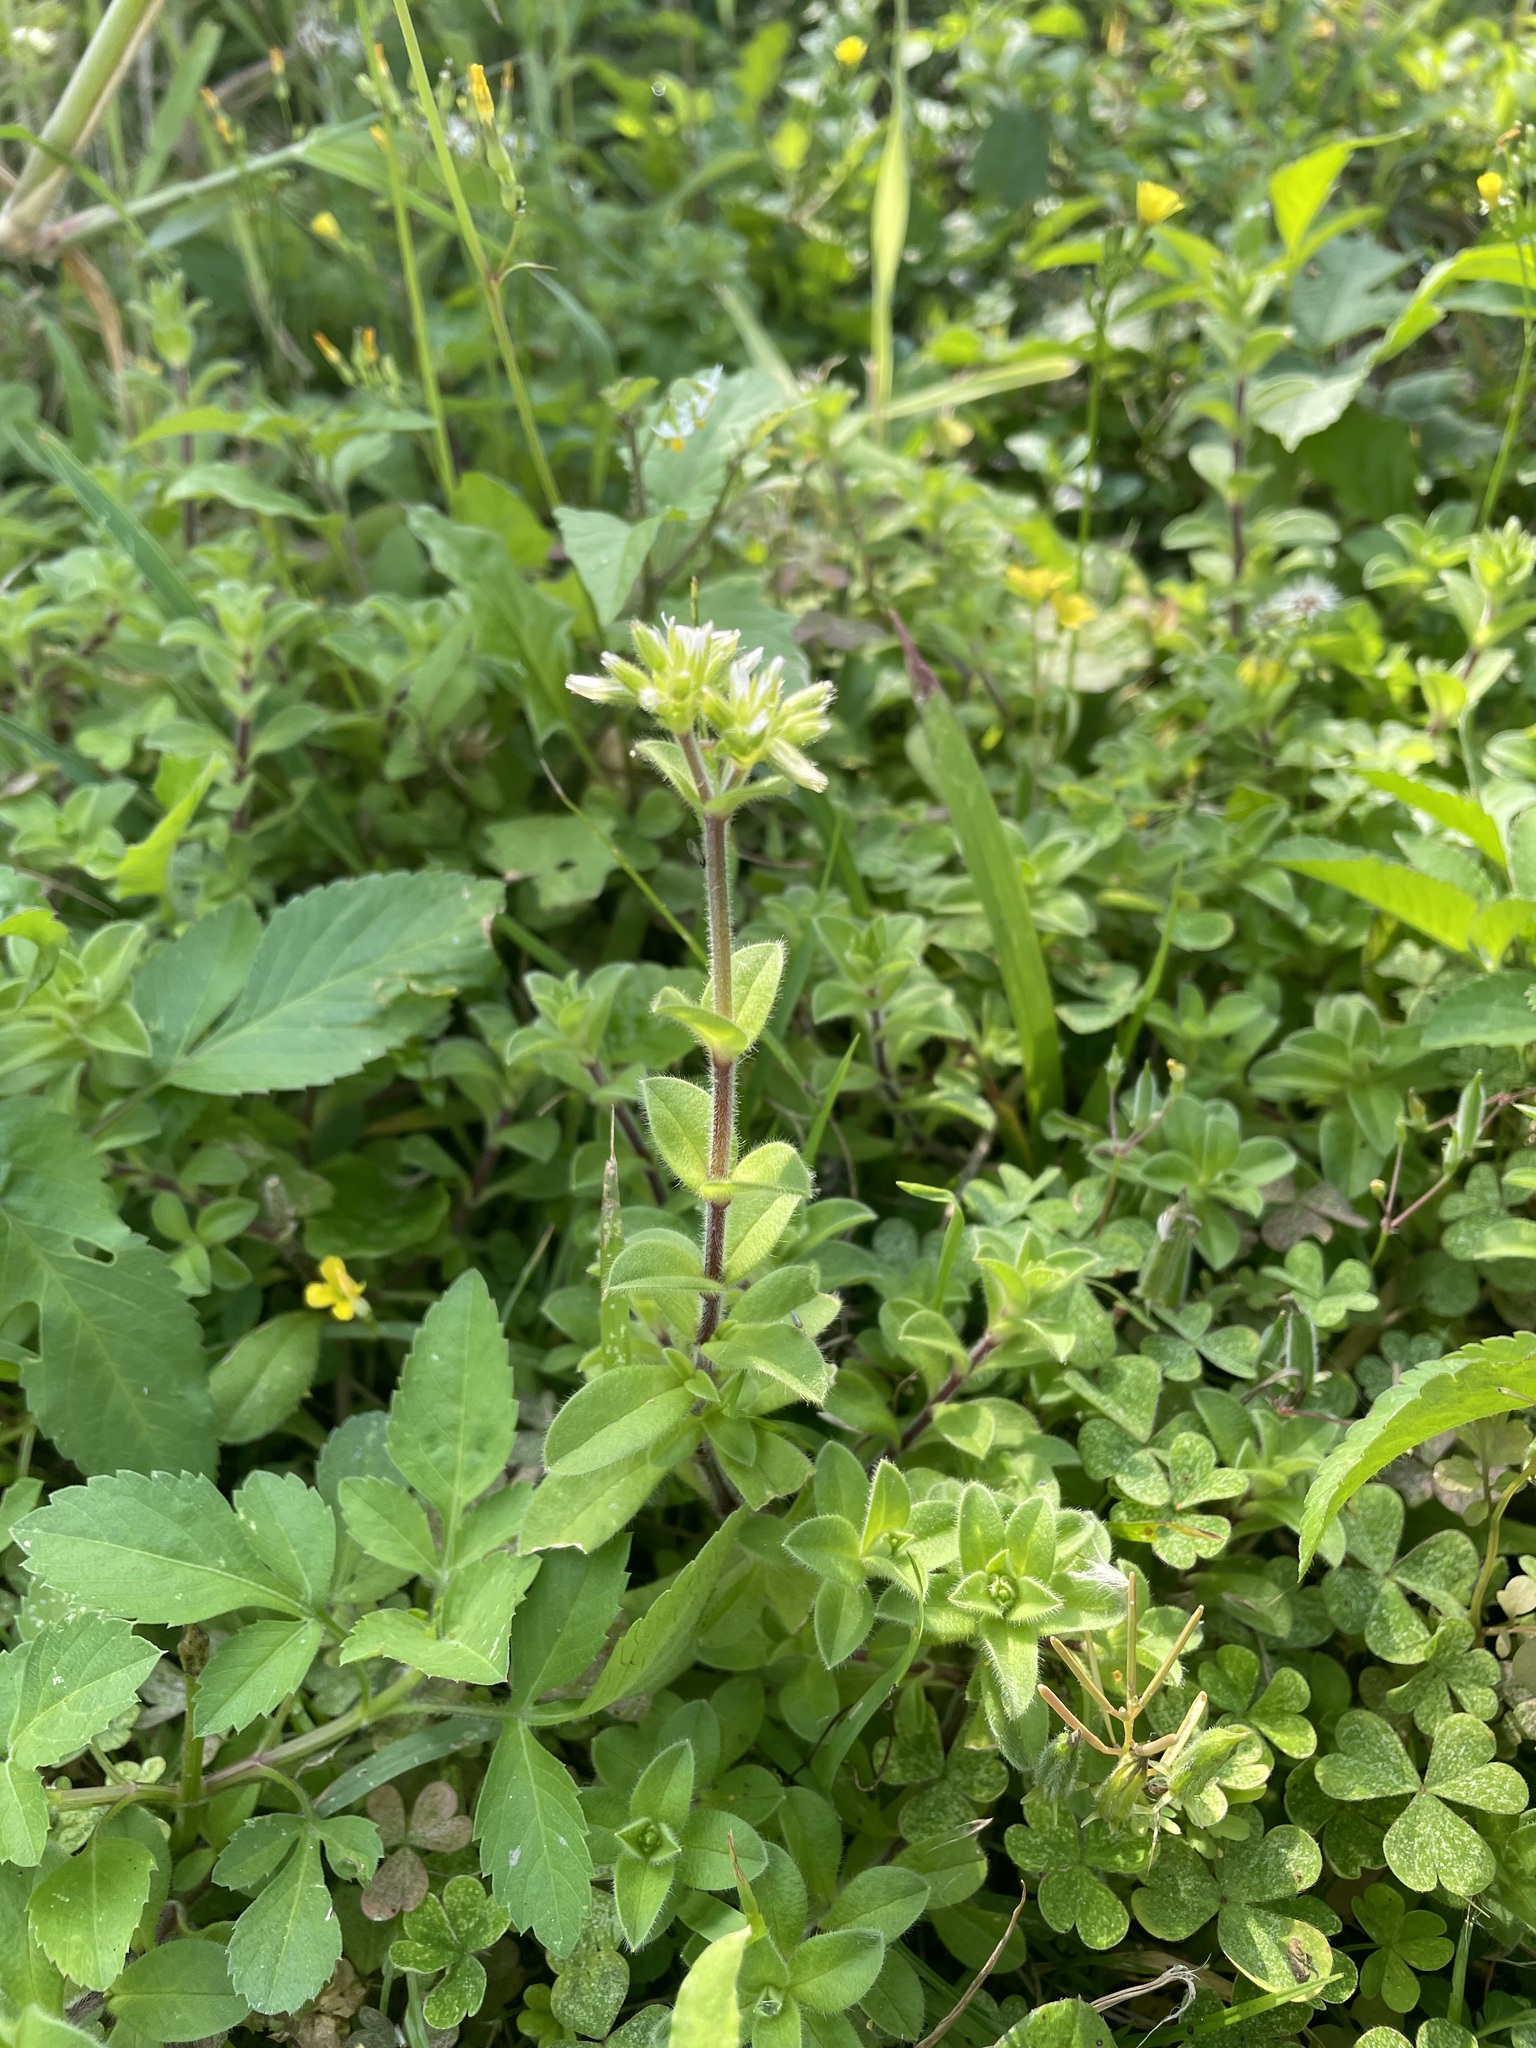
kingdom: Plantae
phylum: Tracheophyta
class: Magnoliopsida
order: Caryophyllales
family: Caryophyllaceae
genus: Cerastium
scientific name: Cerastium glomeratum
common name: Sticky chickweed
